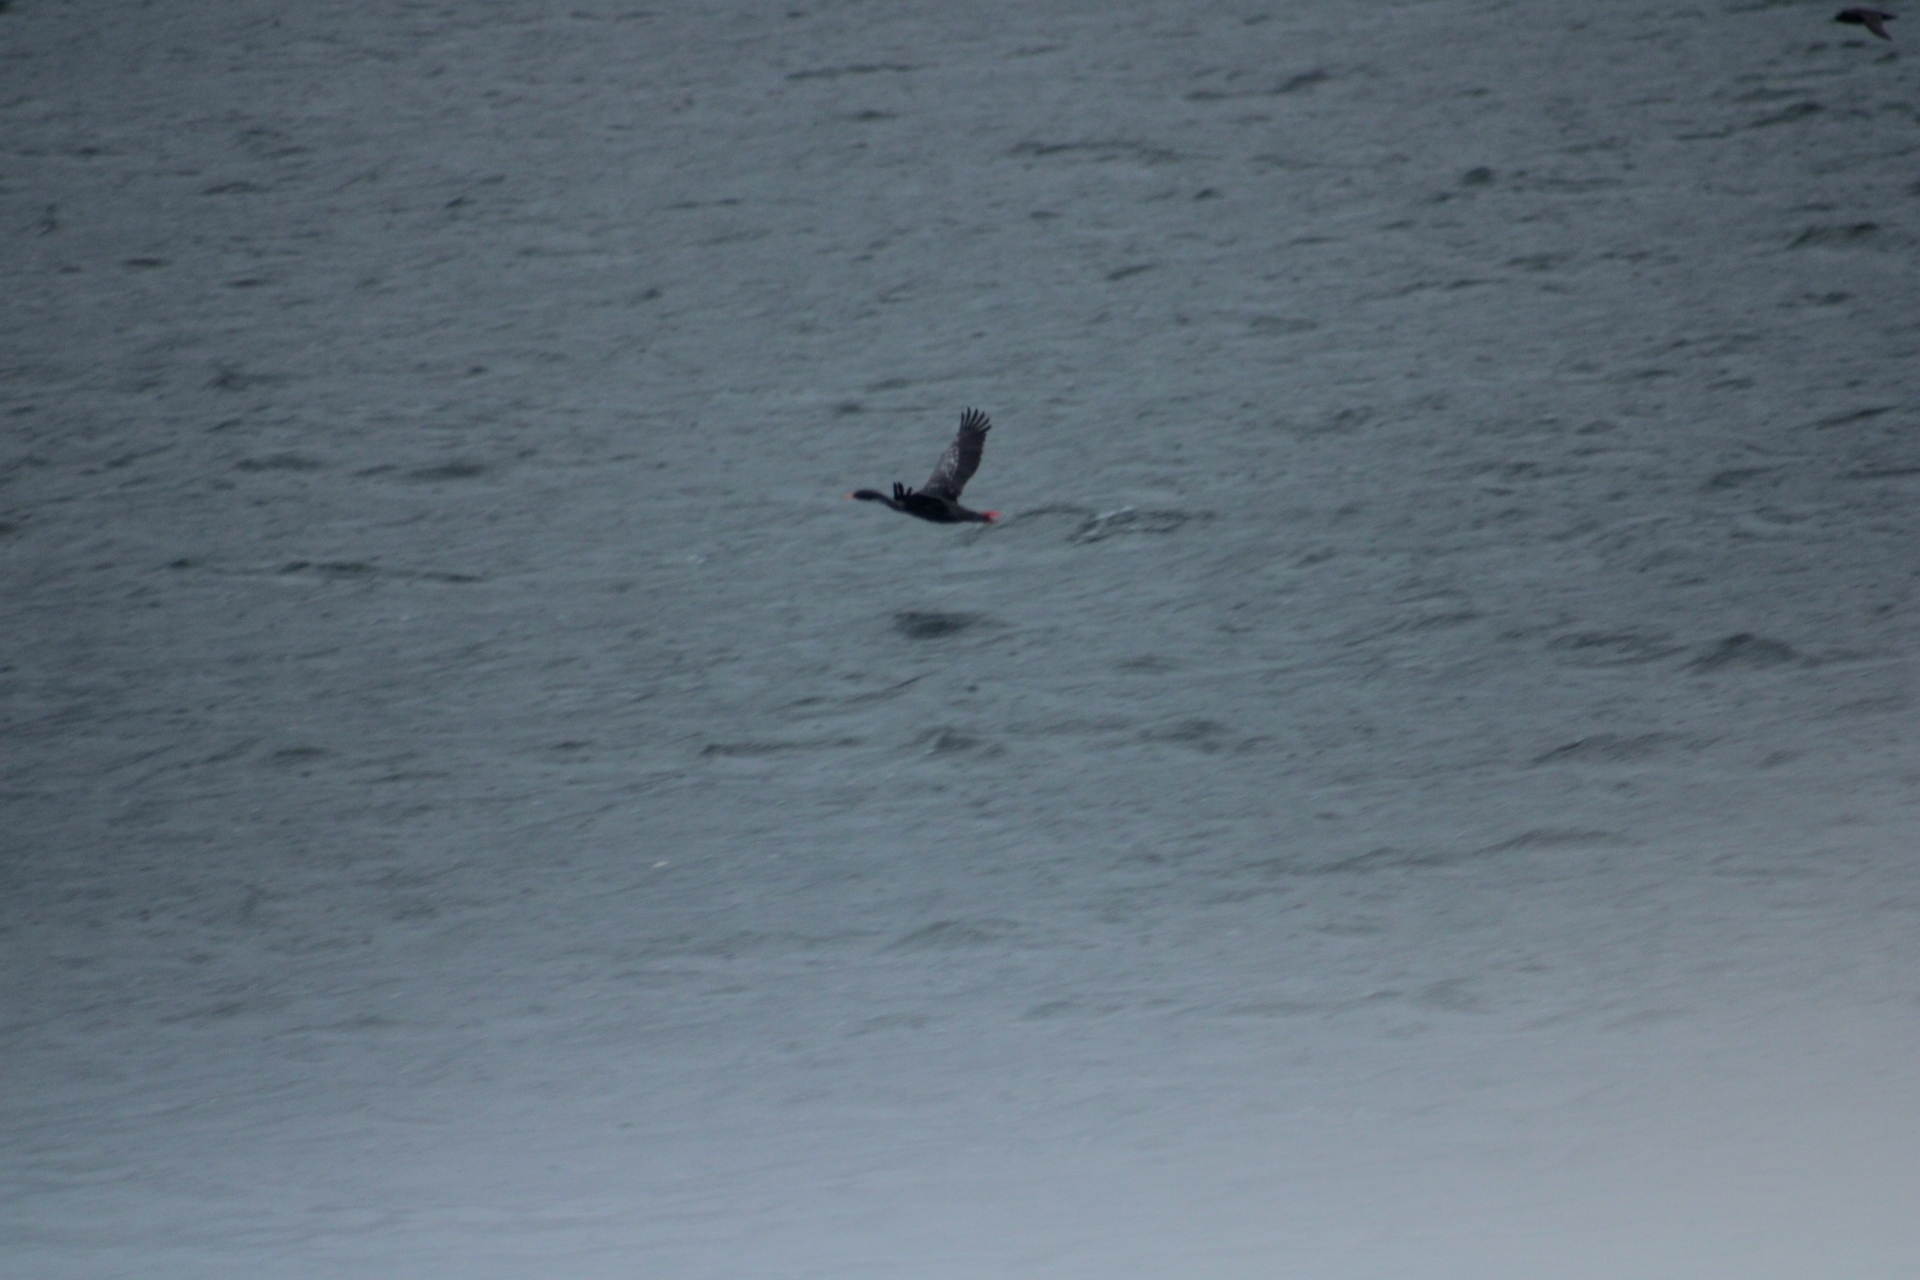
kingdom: Animalia
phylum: Chordata
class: Aves
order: Suliformes
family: Phalacrocoracidae
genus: Phalacrocorax
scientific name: Phalacrocorax gaimardi
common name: Red-legged cormorant
